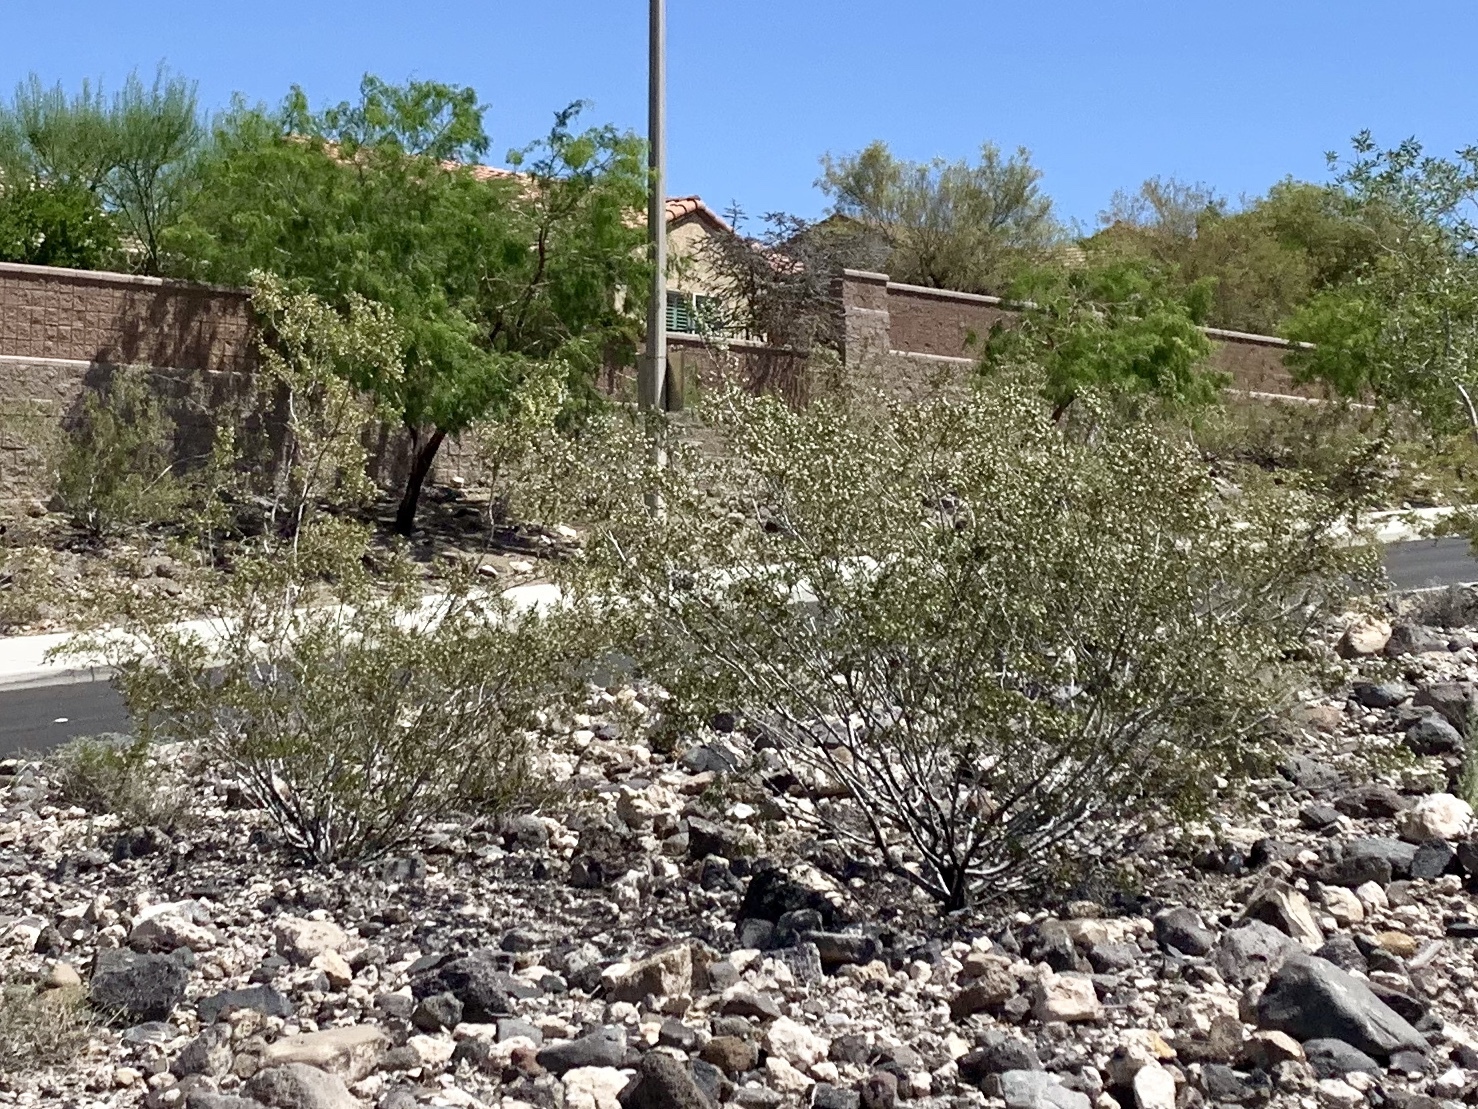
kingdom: Plantae
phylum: Tracheophyta
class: Magnoliopsida
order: Zygophyllales
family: Zygophyllaceae
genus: Larrea
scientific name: Larrea tridentata
